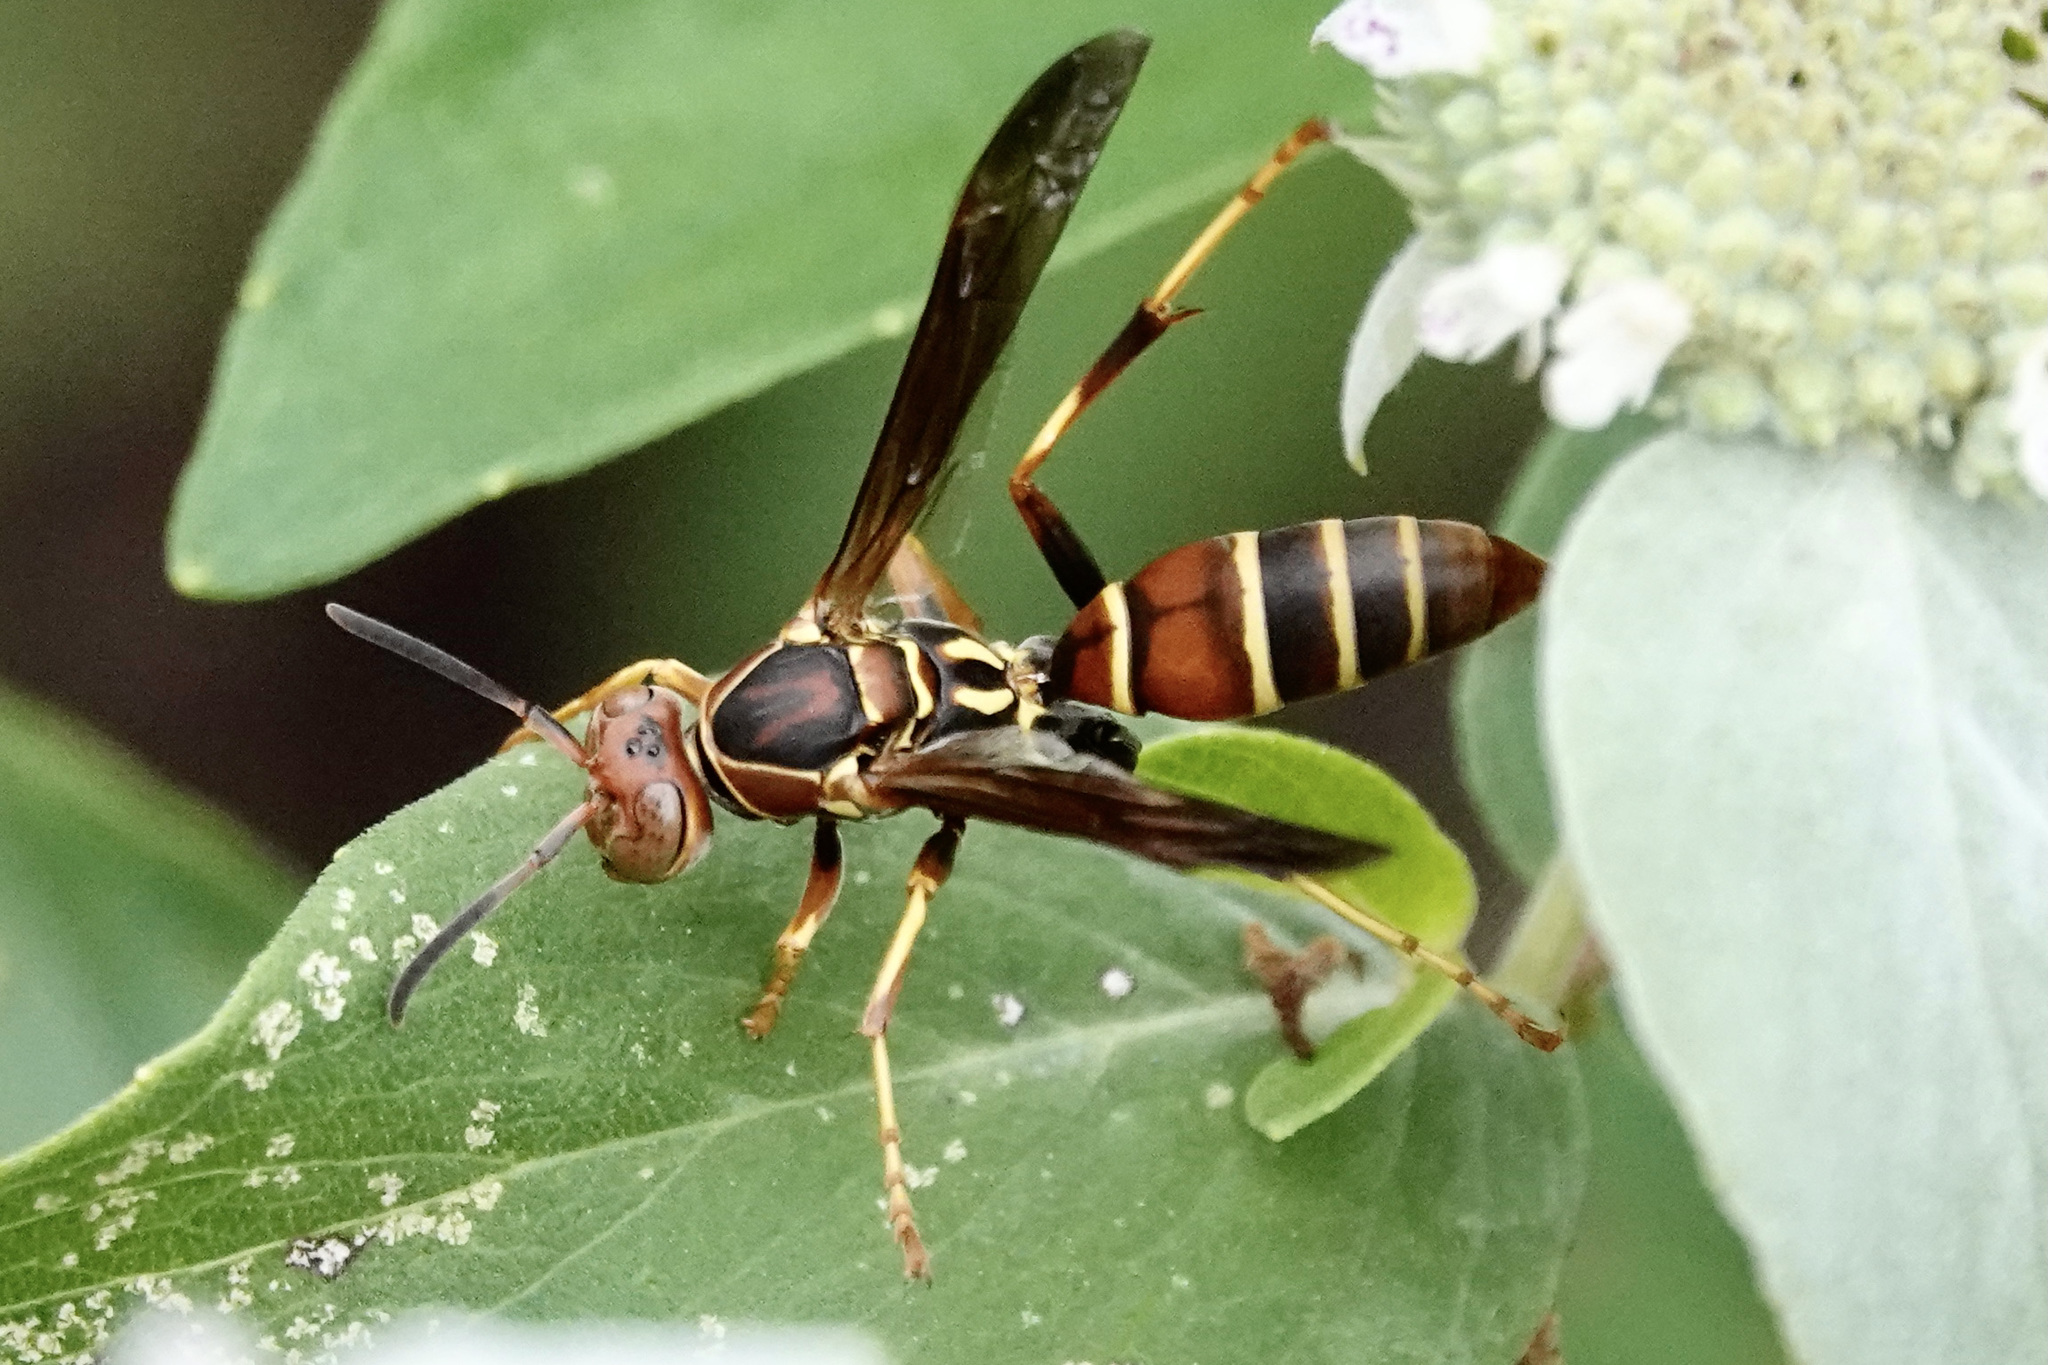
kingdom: Animalia
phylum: Arthropoda
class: Insecta
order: Hymenoptera
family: Eumenidae
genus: Polistes
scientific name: Polistes dorsalis
